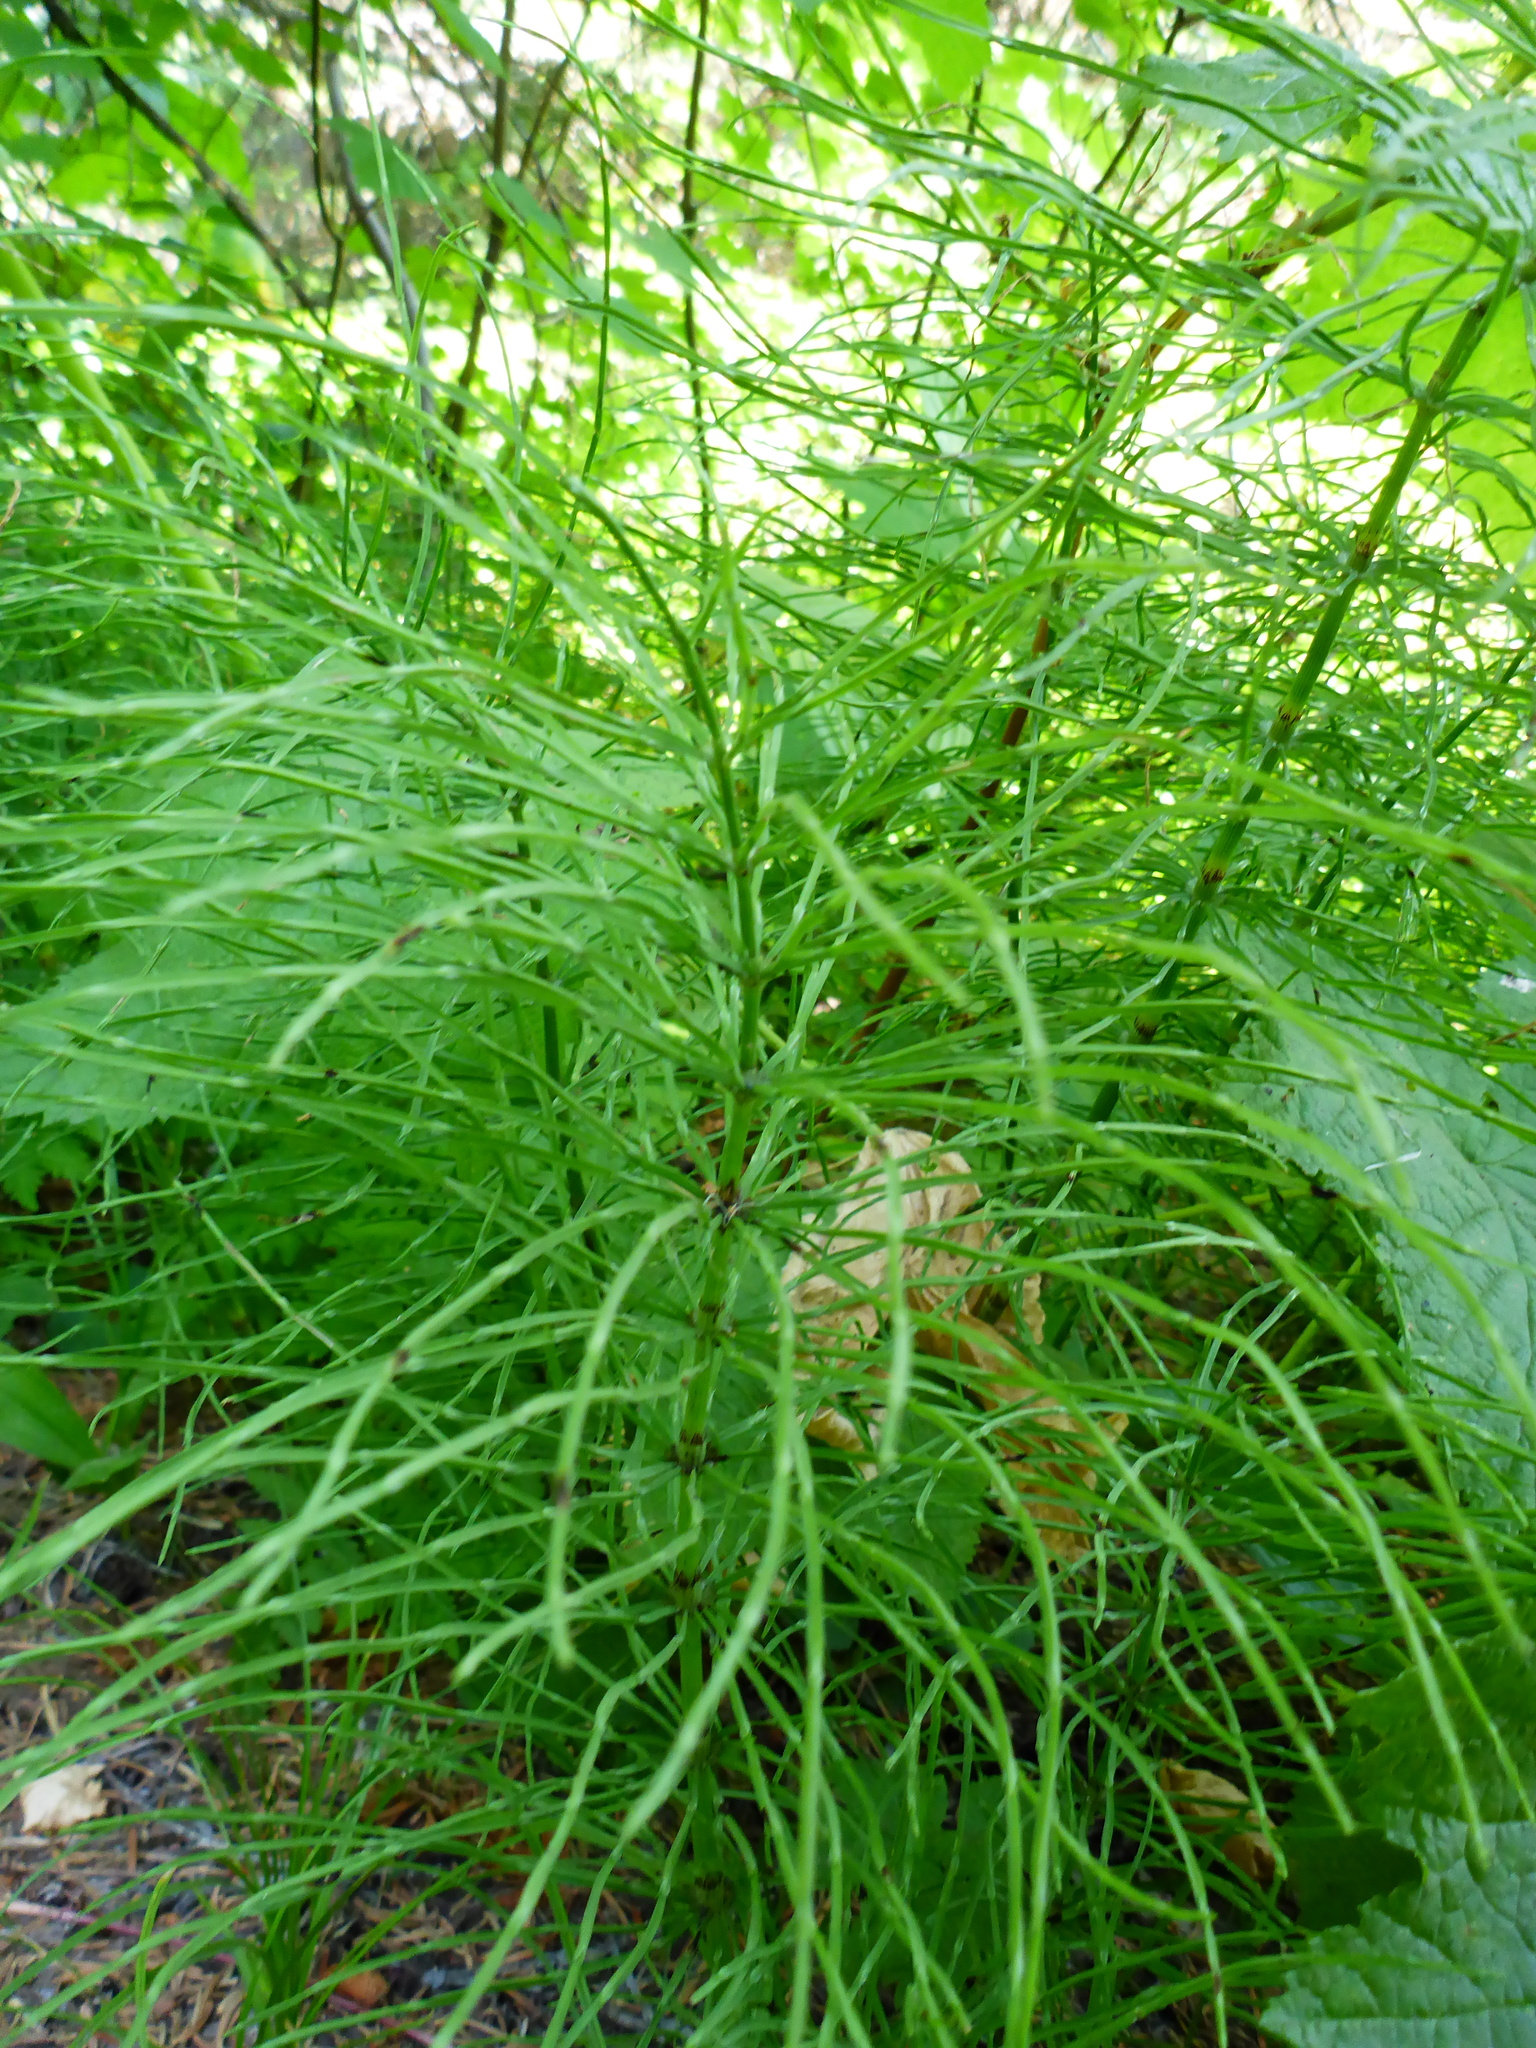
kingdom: Plantae
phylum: Tracheophyta
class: Polypodiopsida
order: Equisetales
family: Equisetaceae
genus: Equisetum
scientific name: Equisetum arvense
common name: Field horsetail
